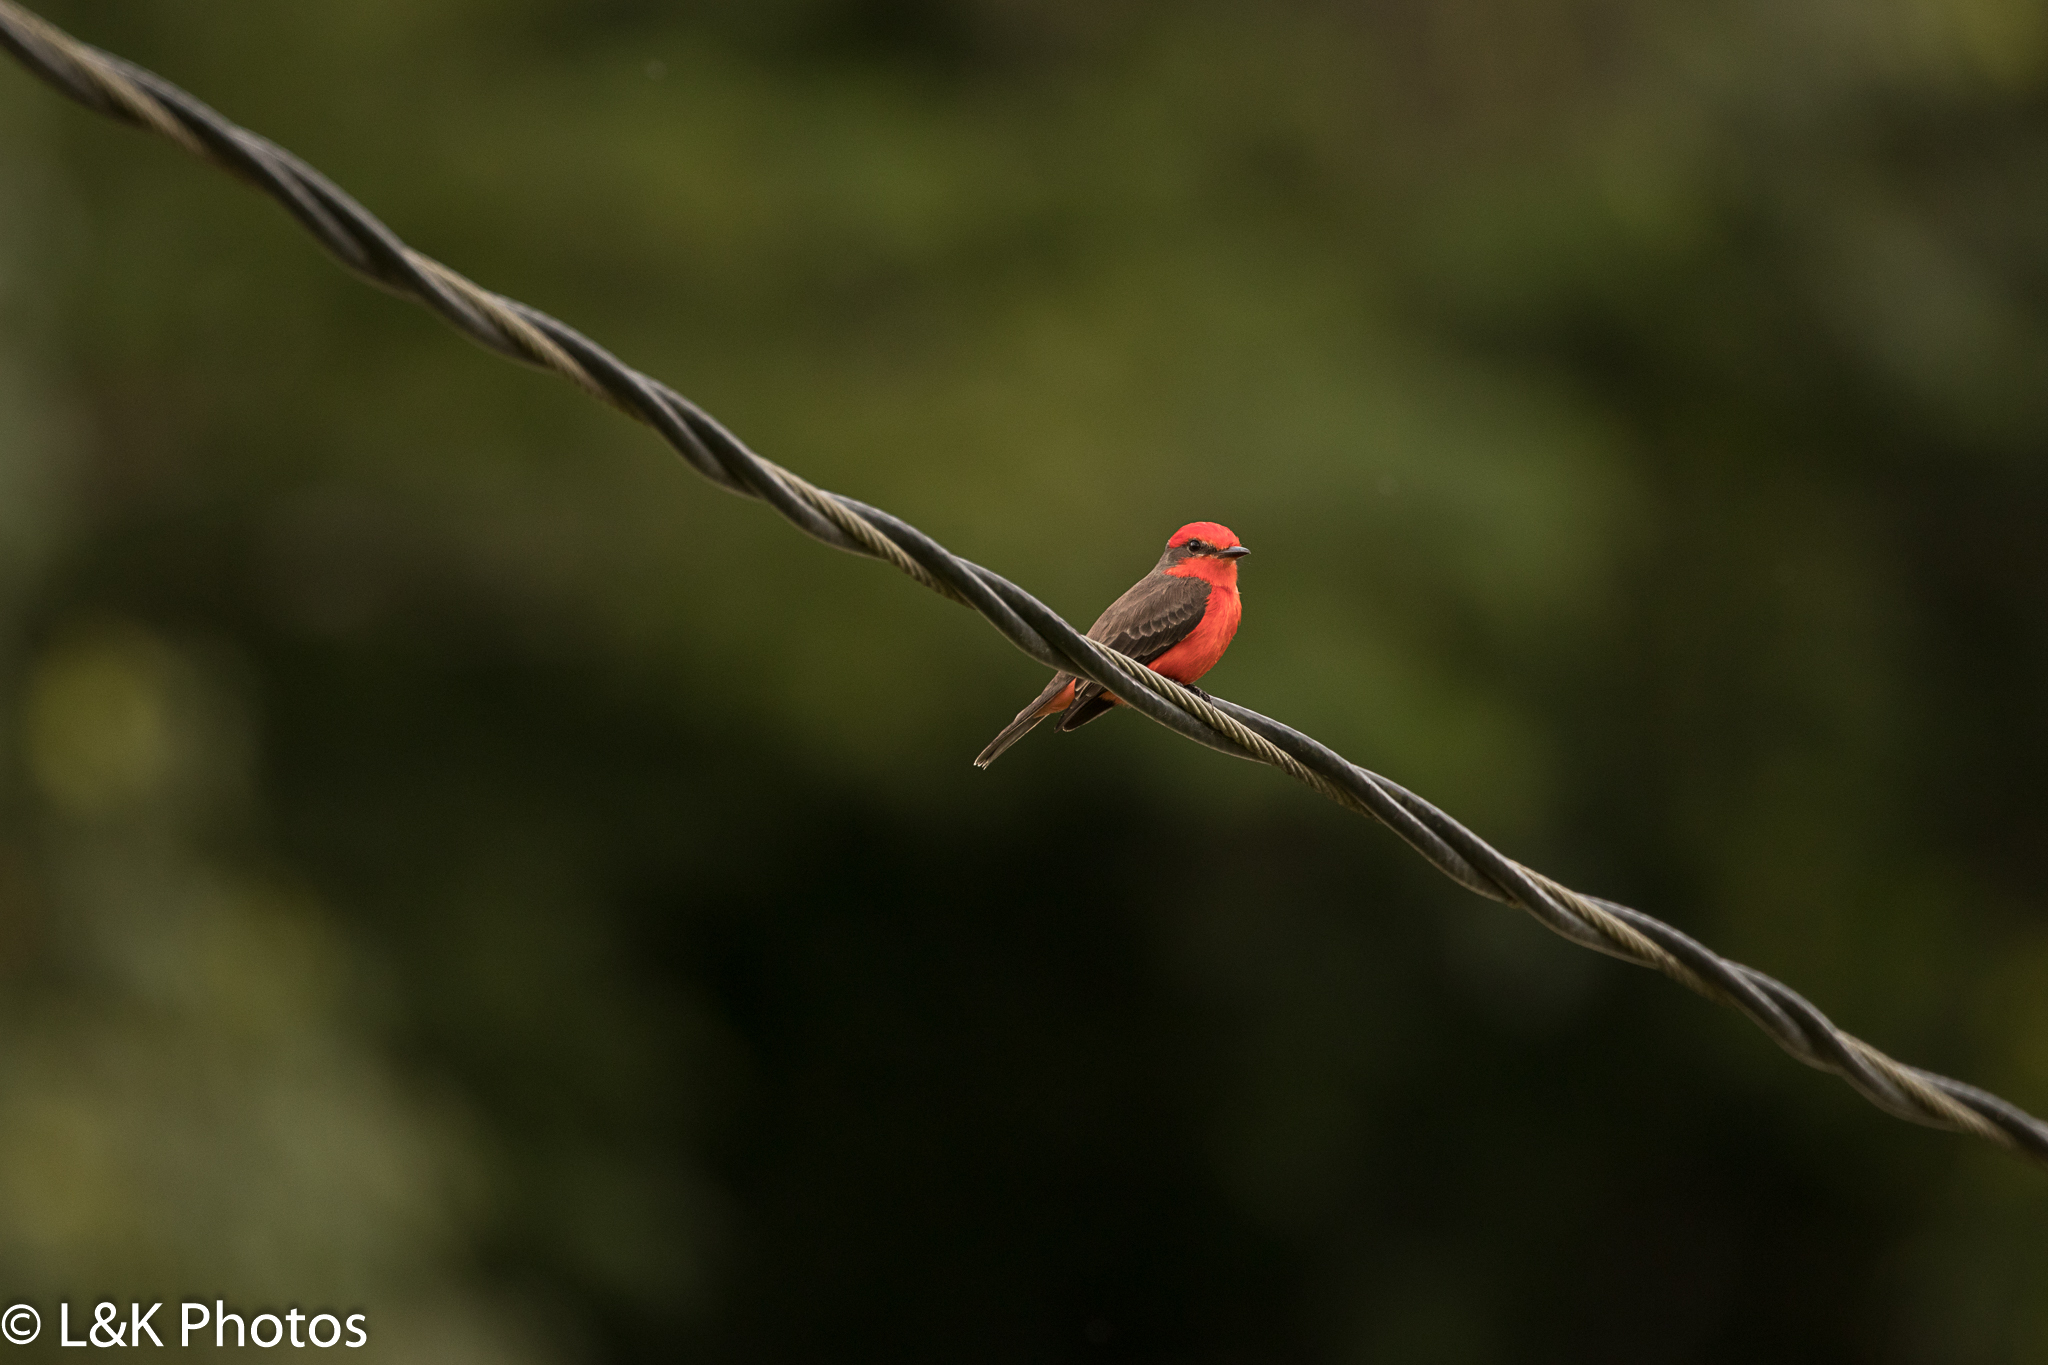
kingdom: Animalia
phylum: Chordata
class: Aves
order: Passeriformes
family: Tyrannidae
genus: Pyrocephalus
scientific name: Pyrocephalus rubinus
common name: Vermilion flycatcher
